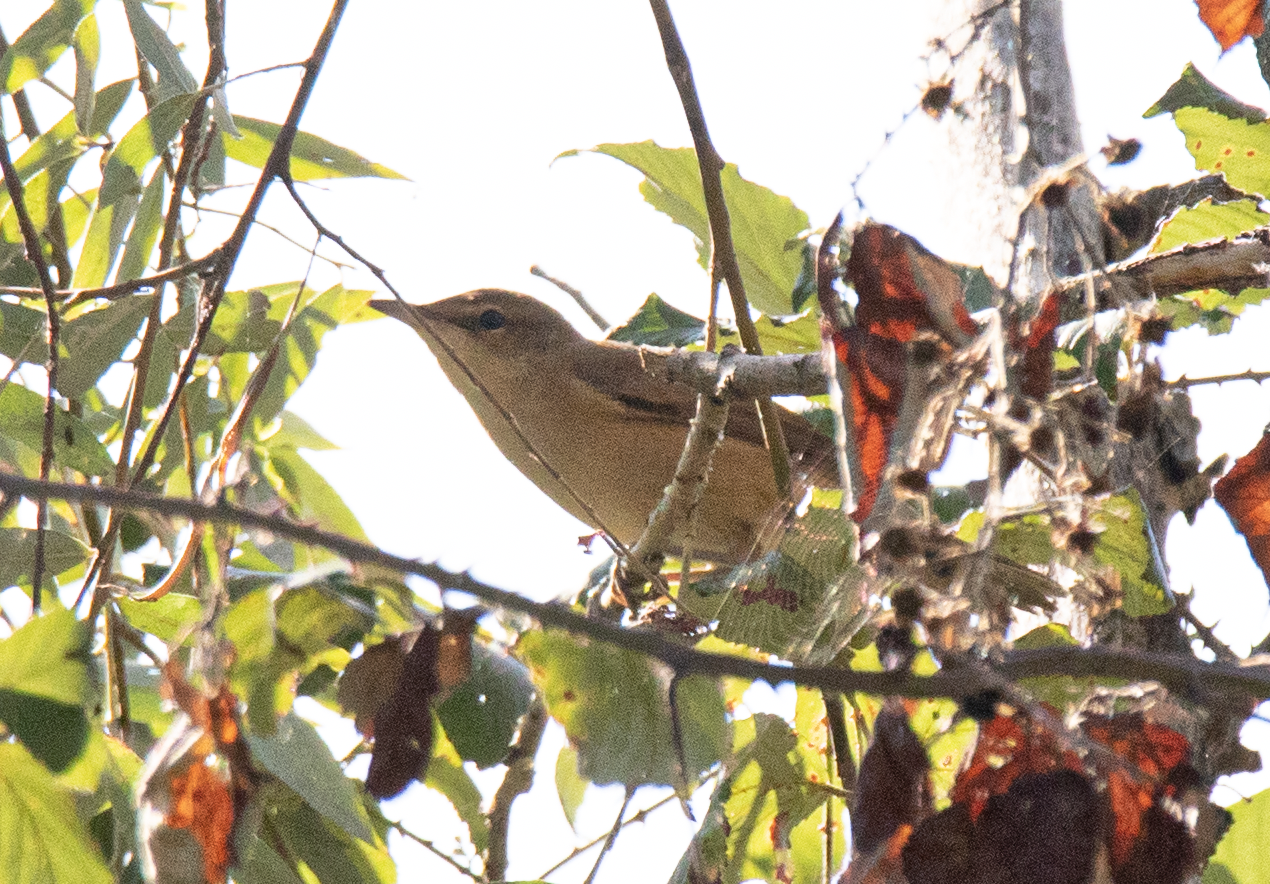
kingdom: Animalia
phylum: Chordata
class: Aves
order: Passeriformes
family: Acrocephalidae
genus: Acrocephalus
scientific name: Acrocephalus arundinaceus
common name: Great reed warbler
